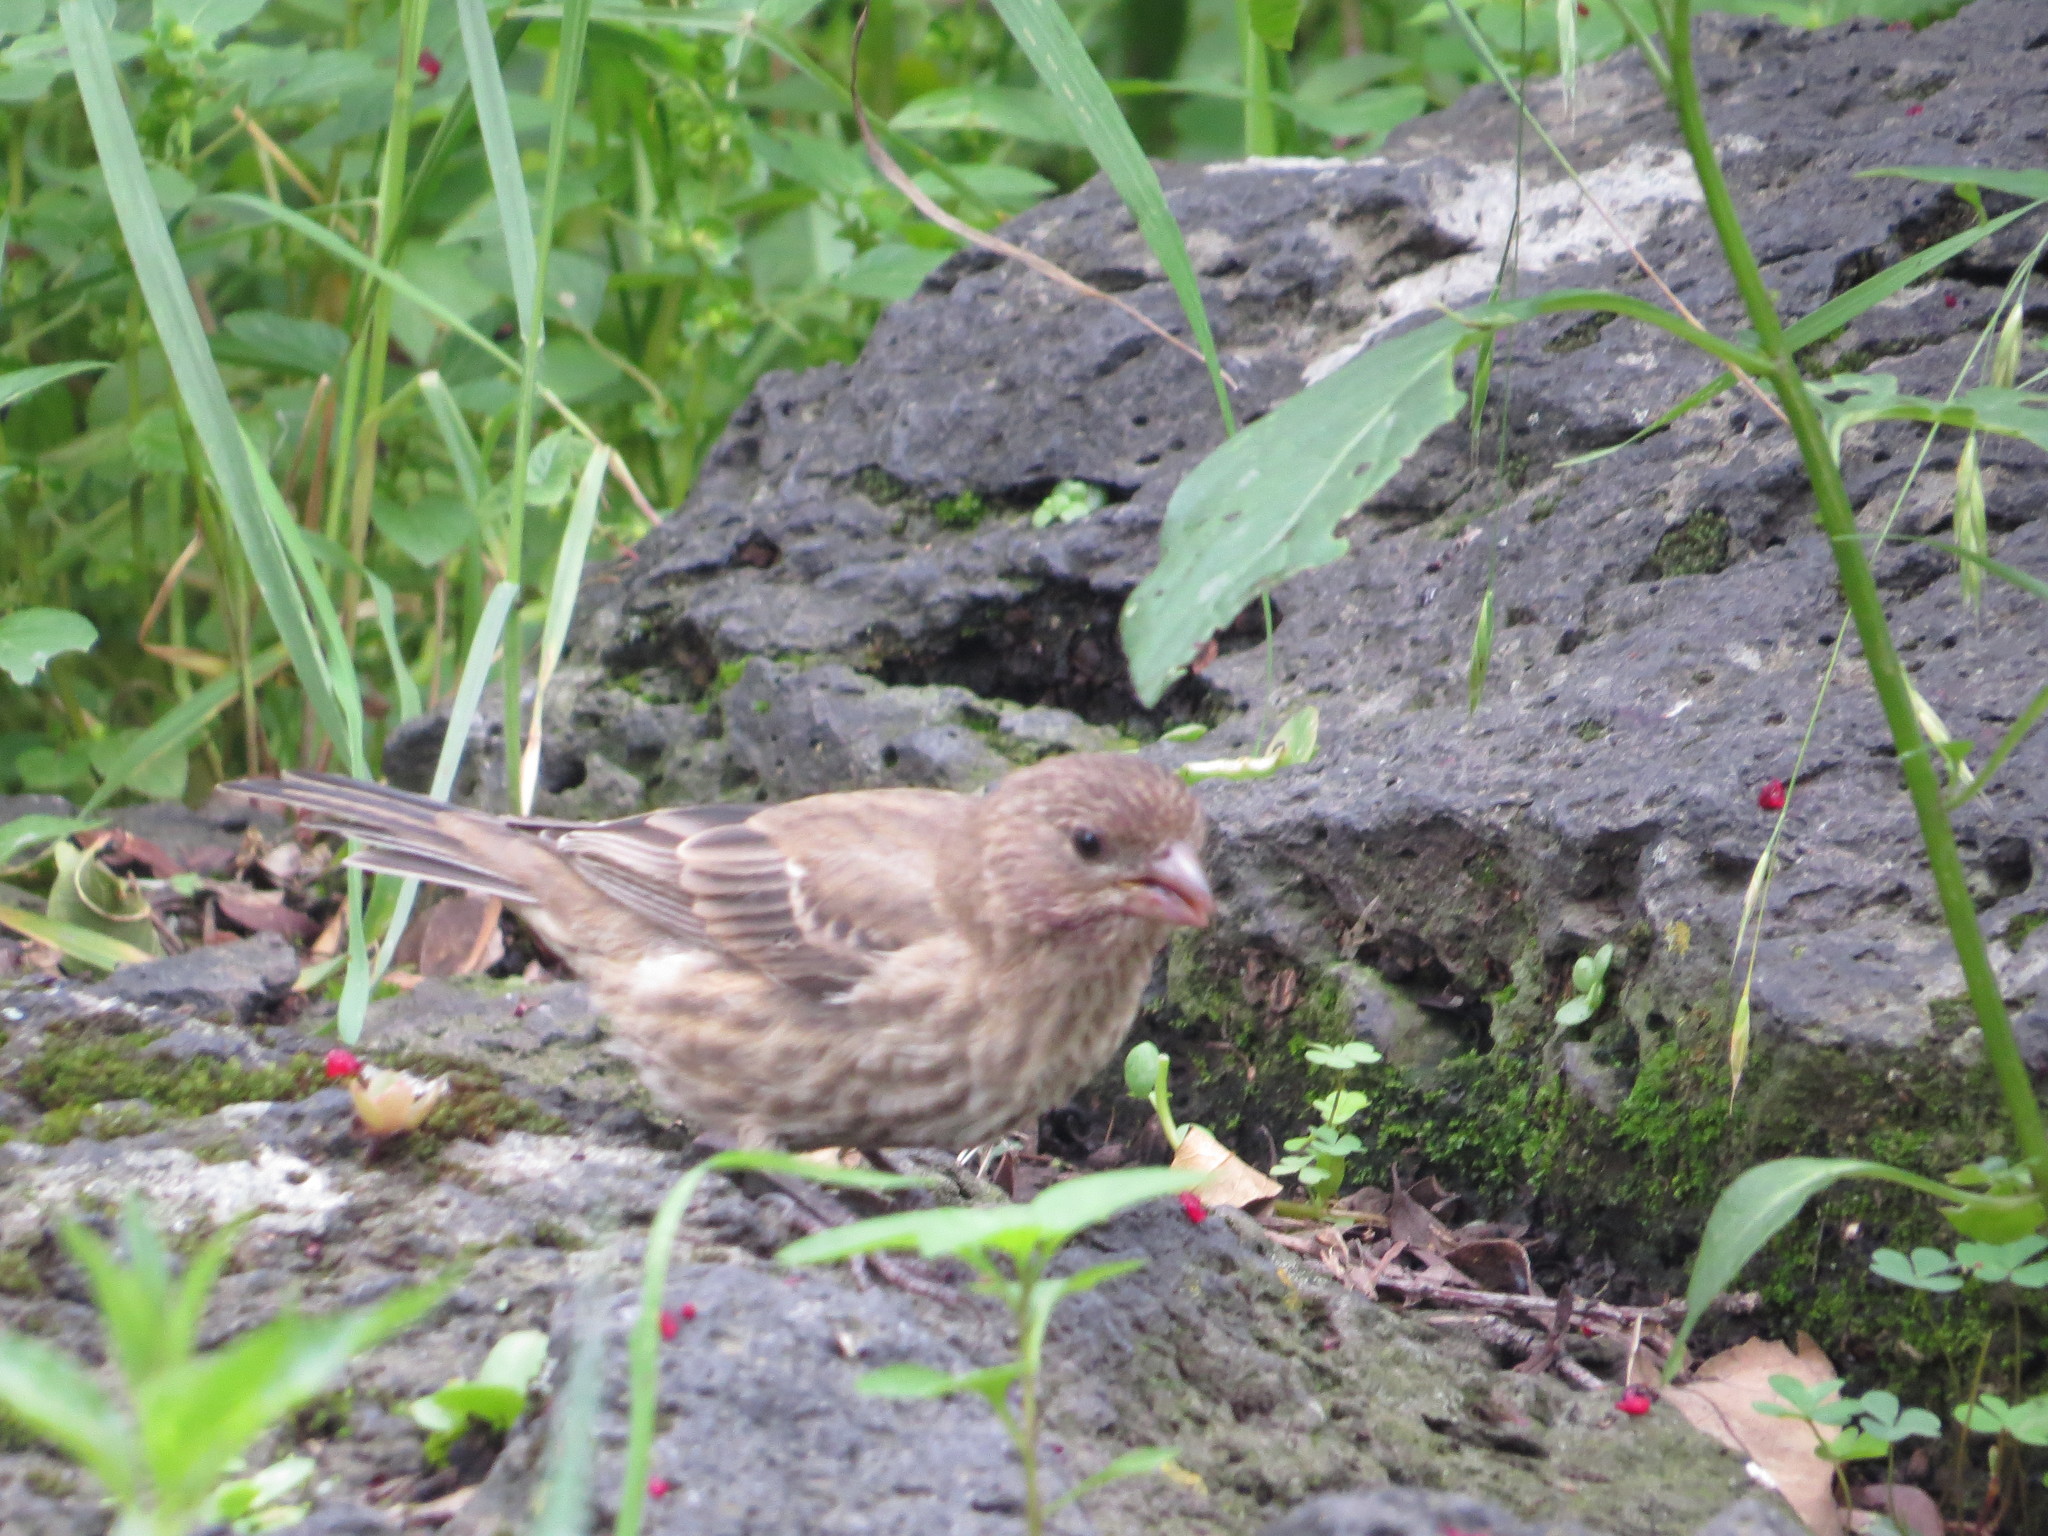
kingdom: Animalia
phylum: Chordata
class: Aves
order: Passeriformes
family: Fringillidae
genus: Haemorhous
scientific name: Haemorhous mexicanus
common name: House finch
